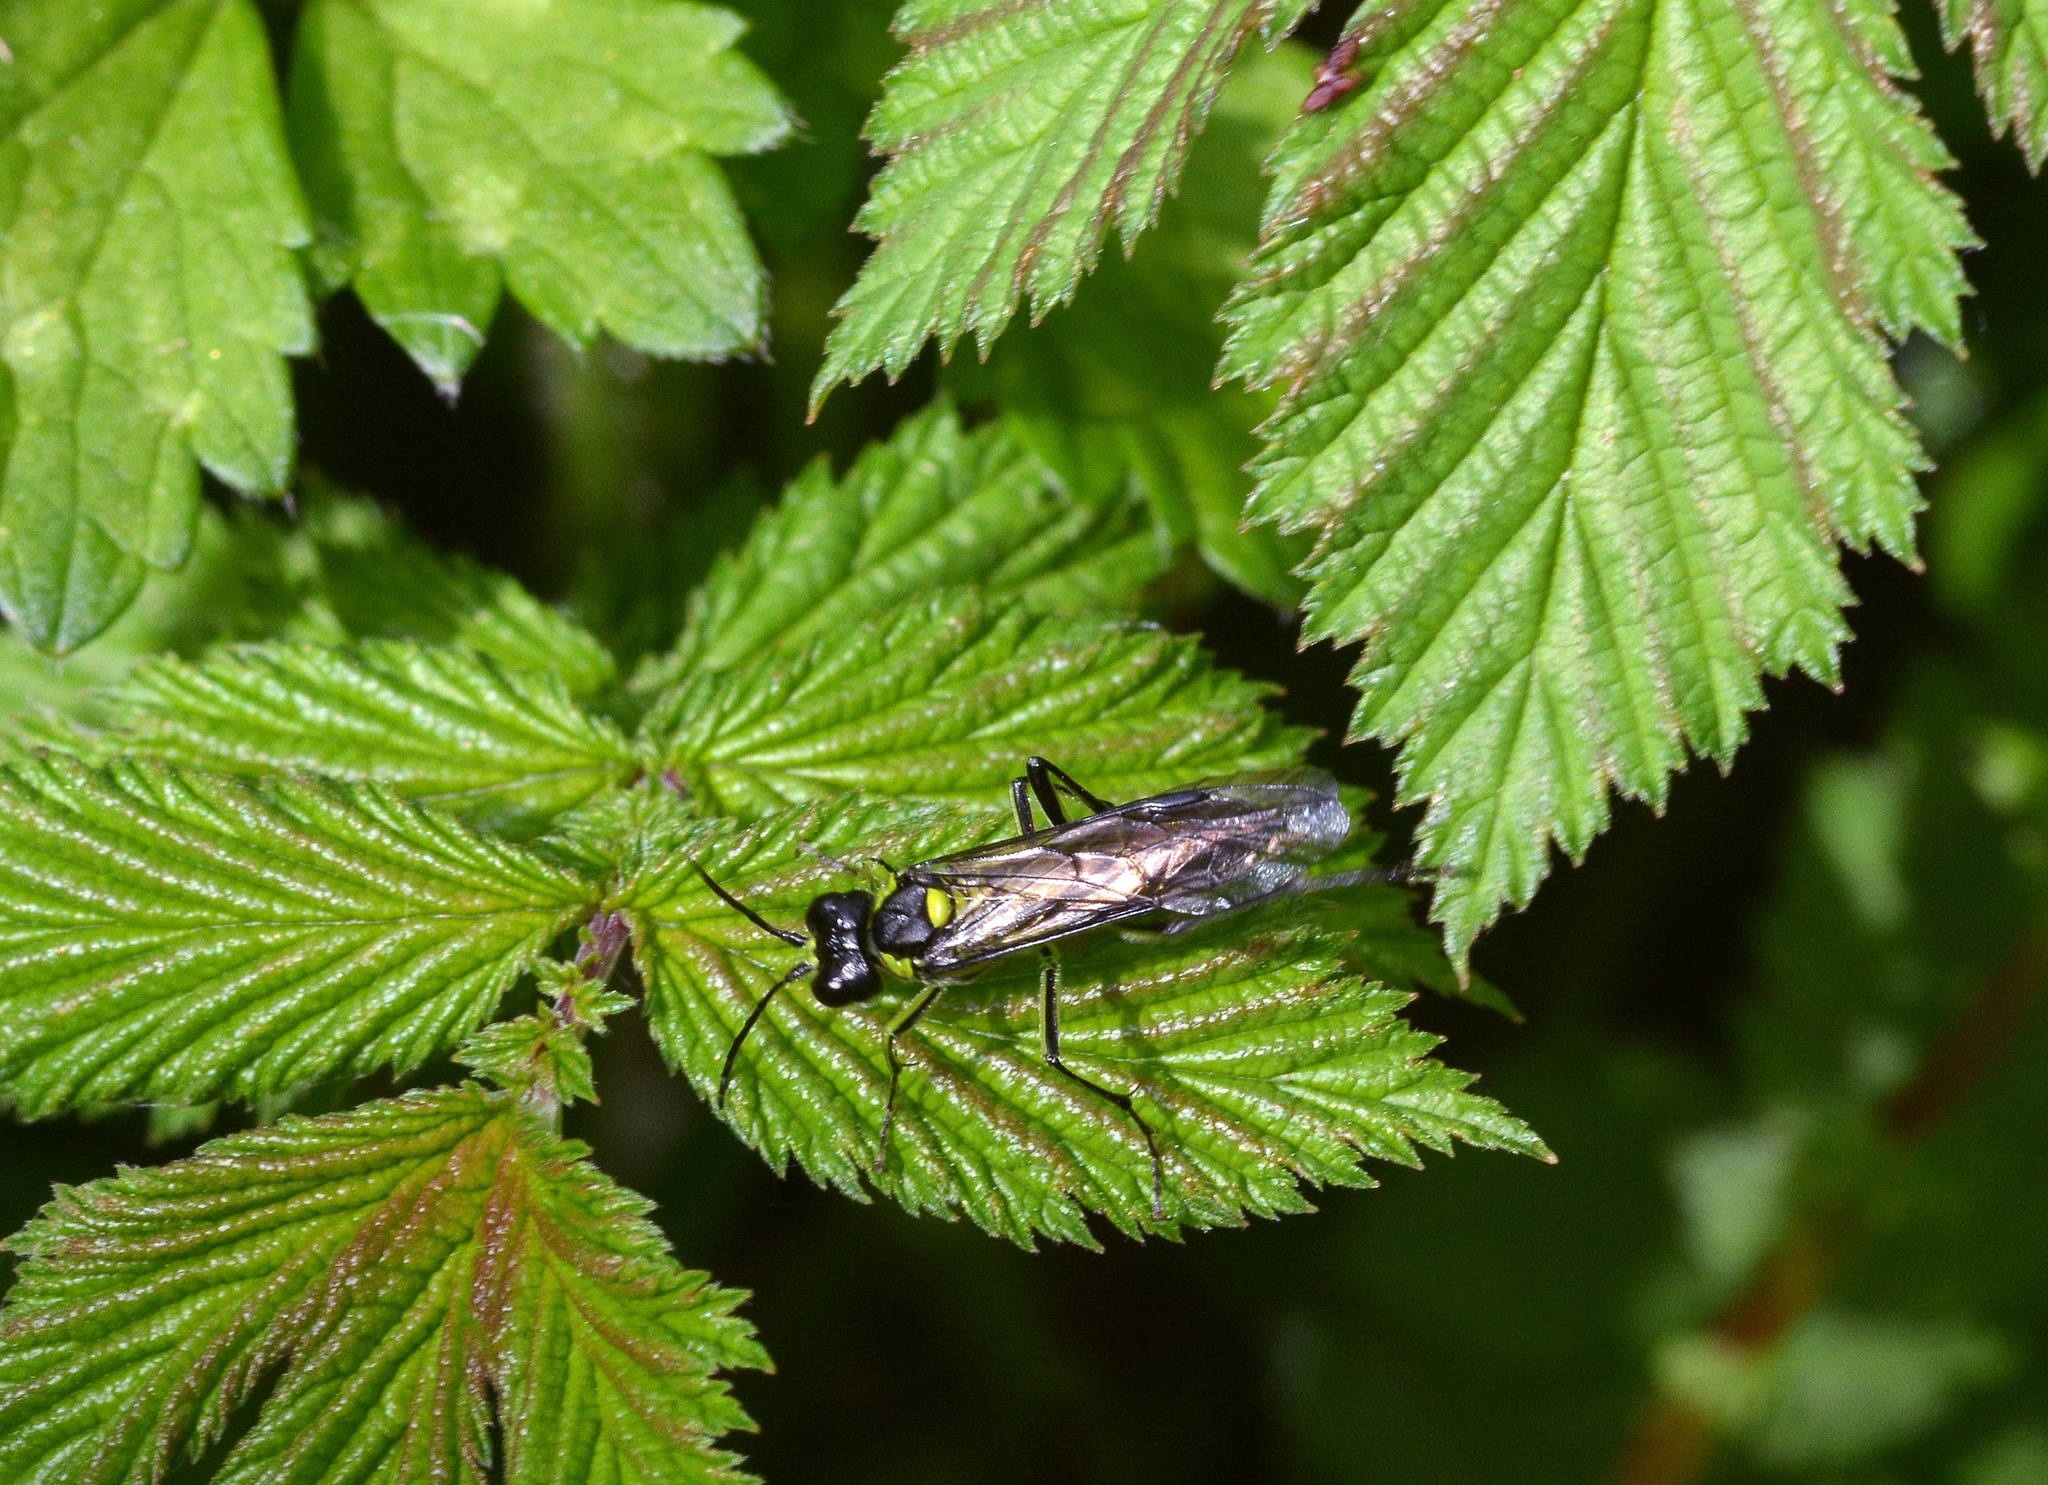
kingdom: Animalia
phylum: Arthropoda
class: Insecta
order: Hymenoptera
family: Tenthredinidae
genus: Tenthredo
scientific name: Tenthredo mesomela
